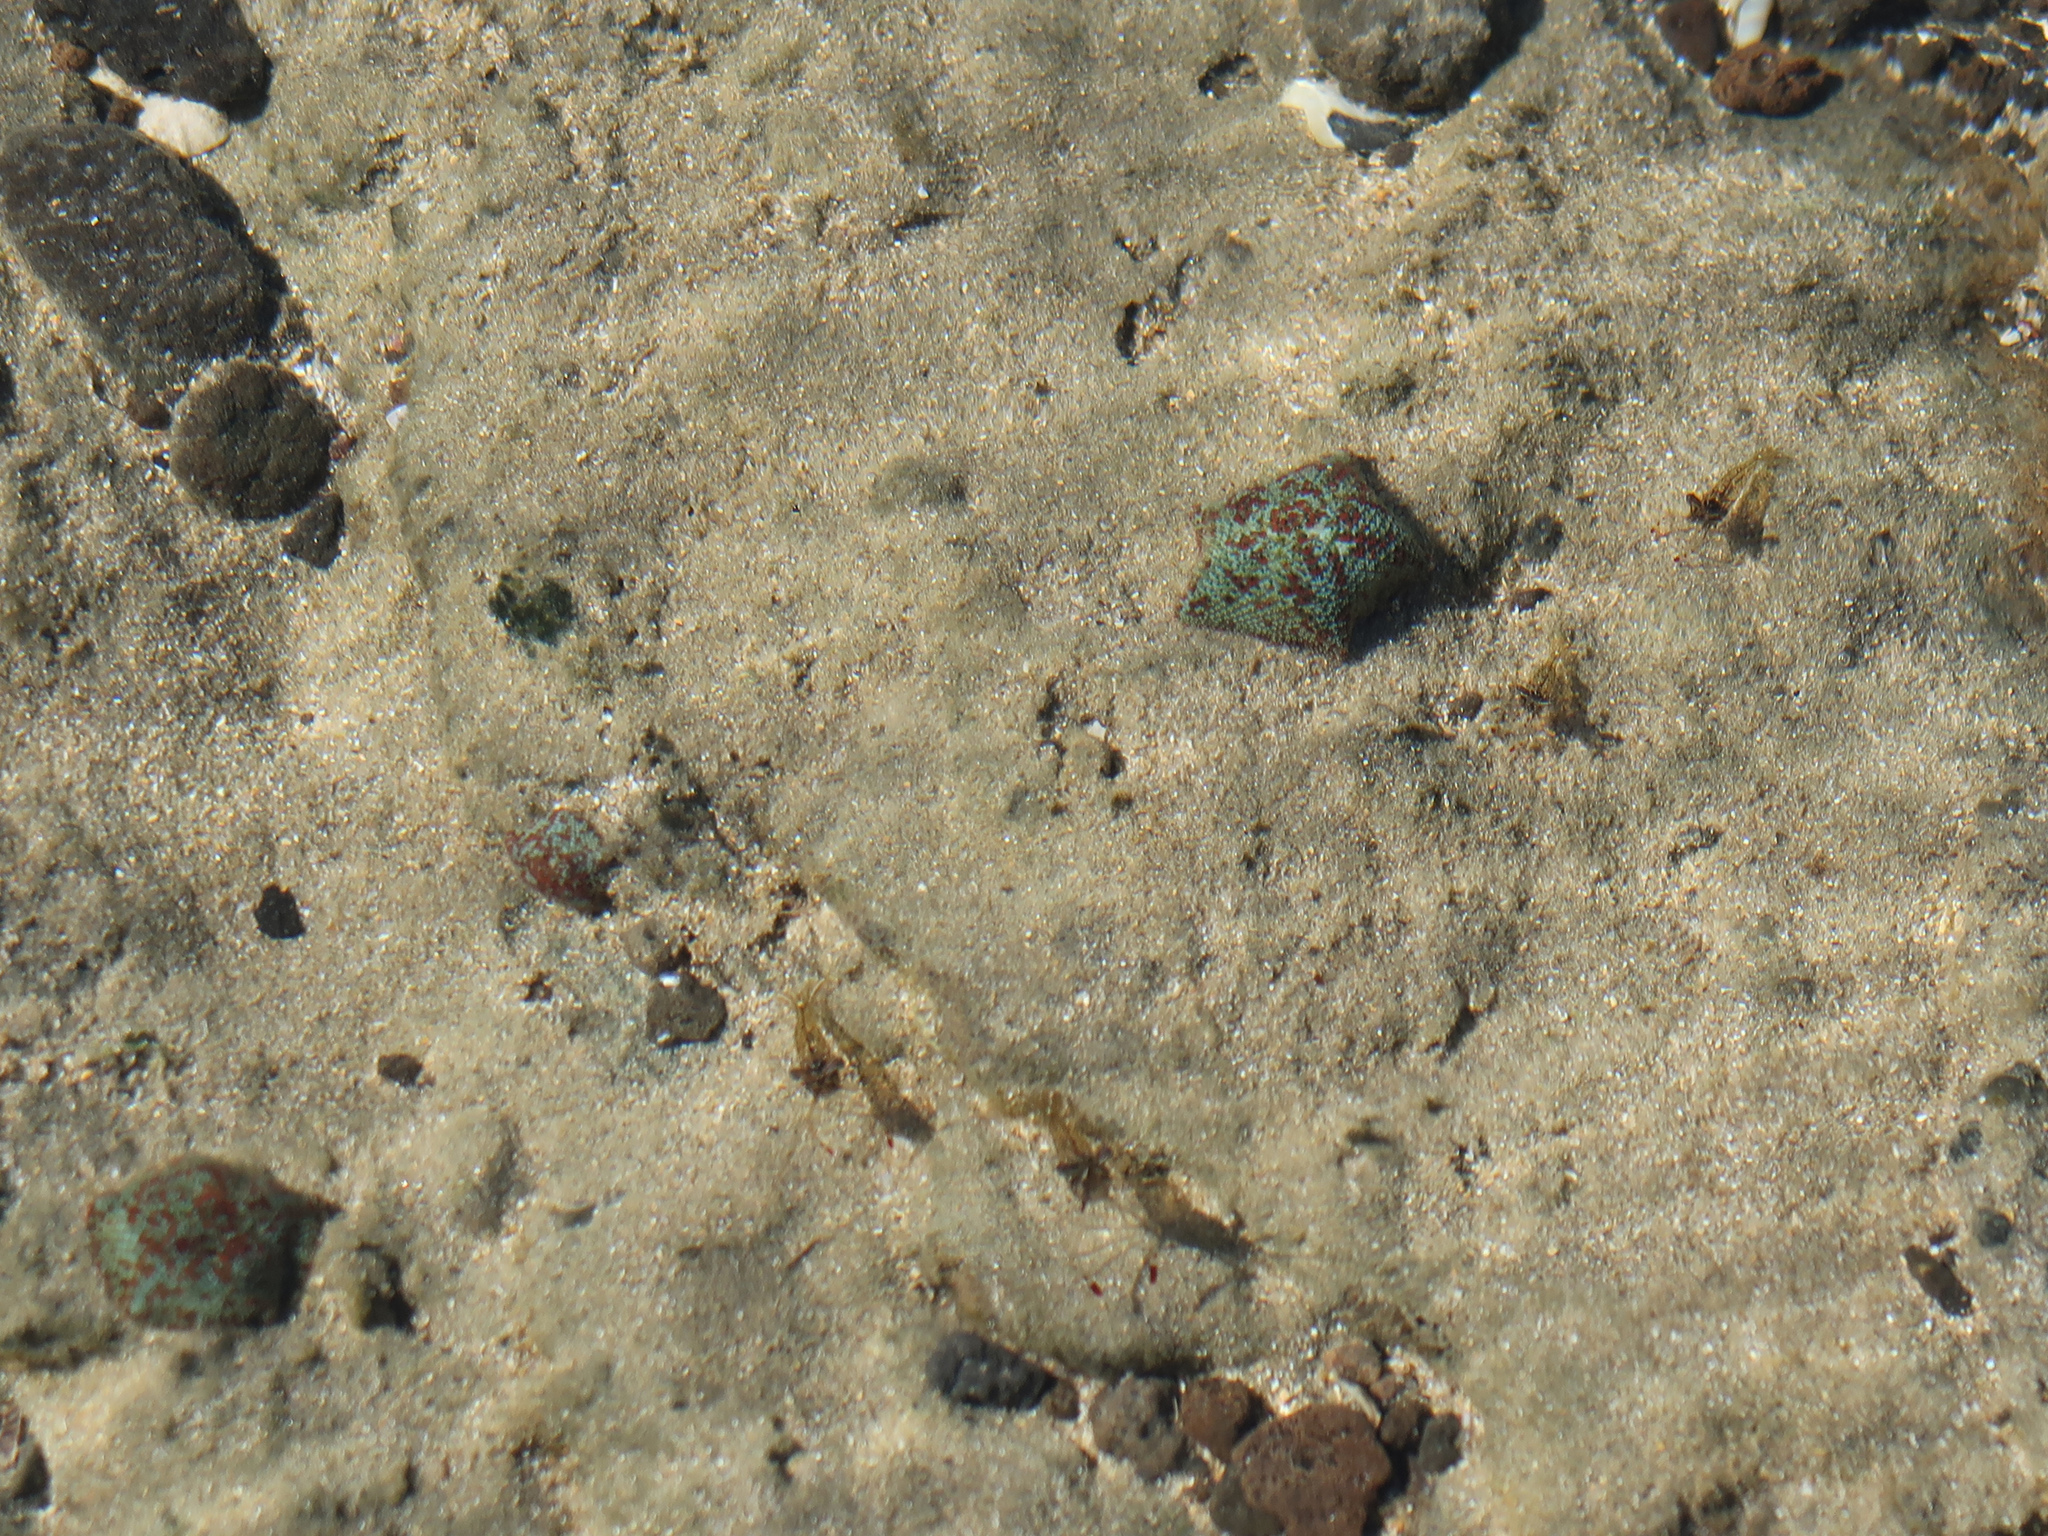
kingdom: Animalia
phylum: Echinodermata
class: Asteroidea
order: Valvatida
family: Asterinidae
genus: Parvulastra
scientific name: Parvulastra exigua
